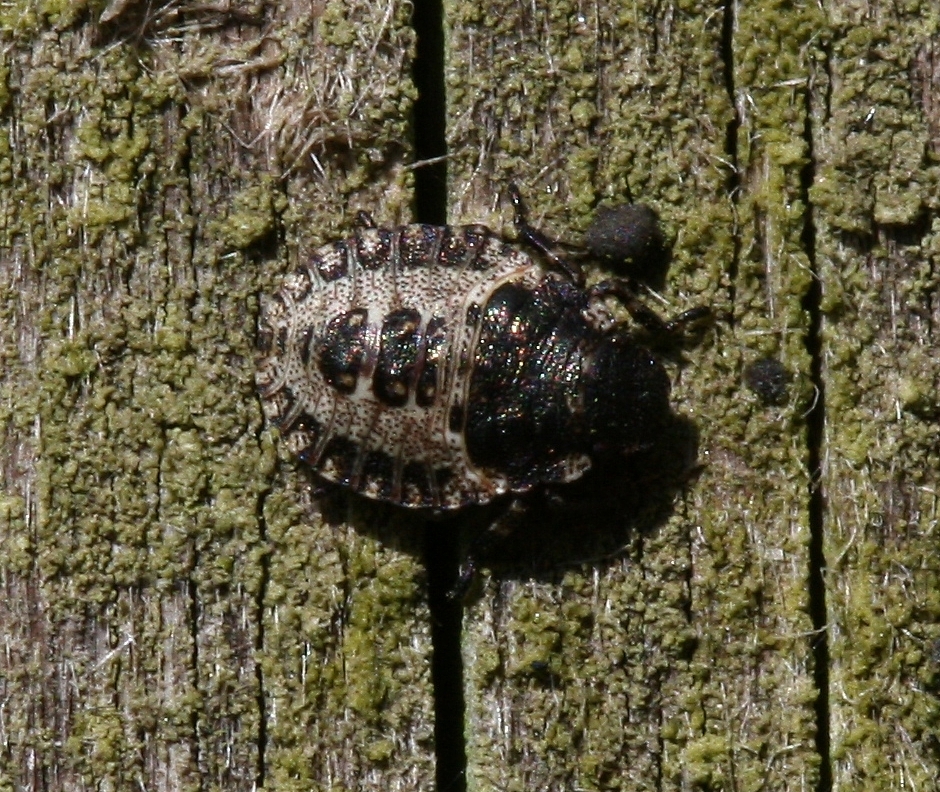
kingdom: Animalia
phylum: Arthropoda
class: Insecta
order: Hemiptera
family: Pentatomidae
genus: Pentatoma
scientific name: Pentatoma rufipes
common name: Forest bug
